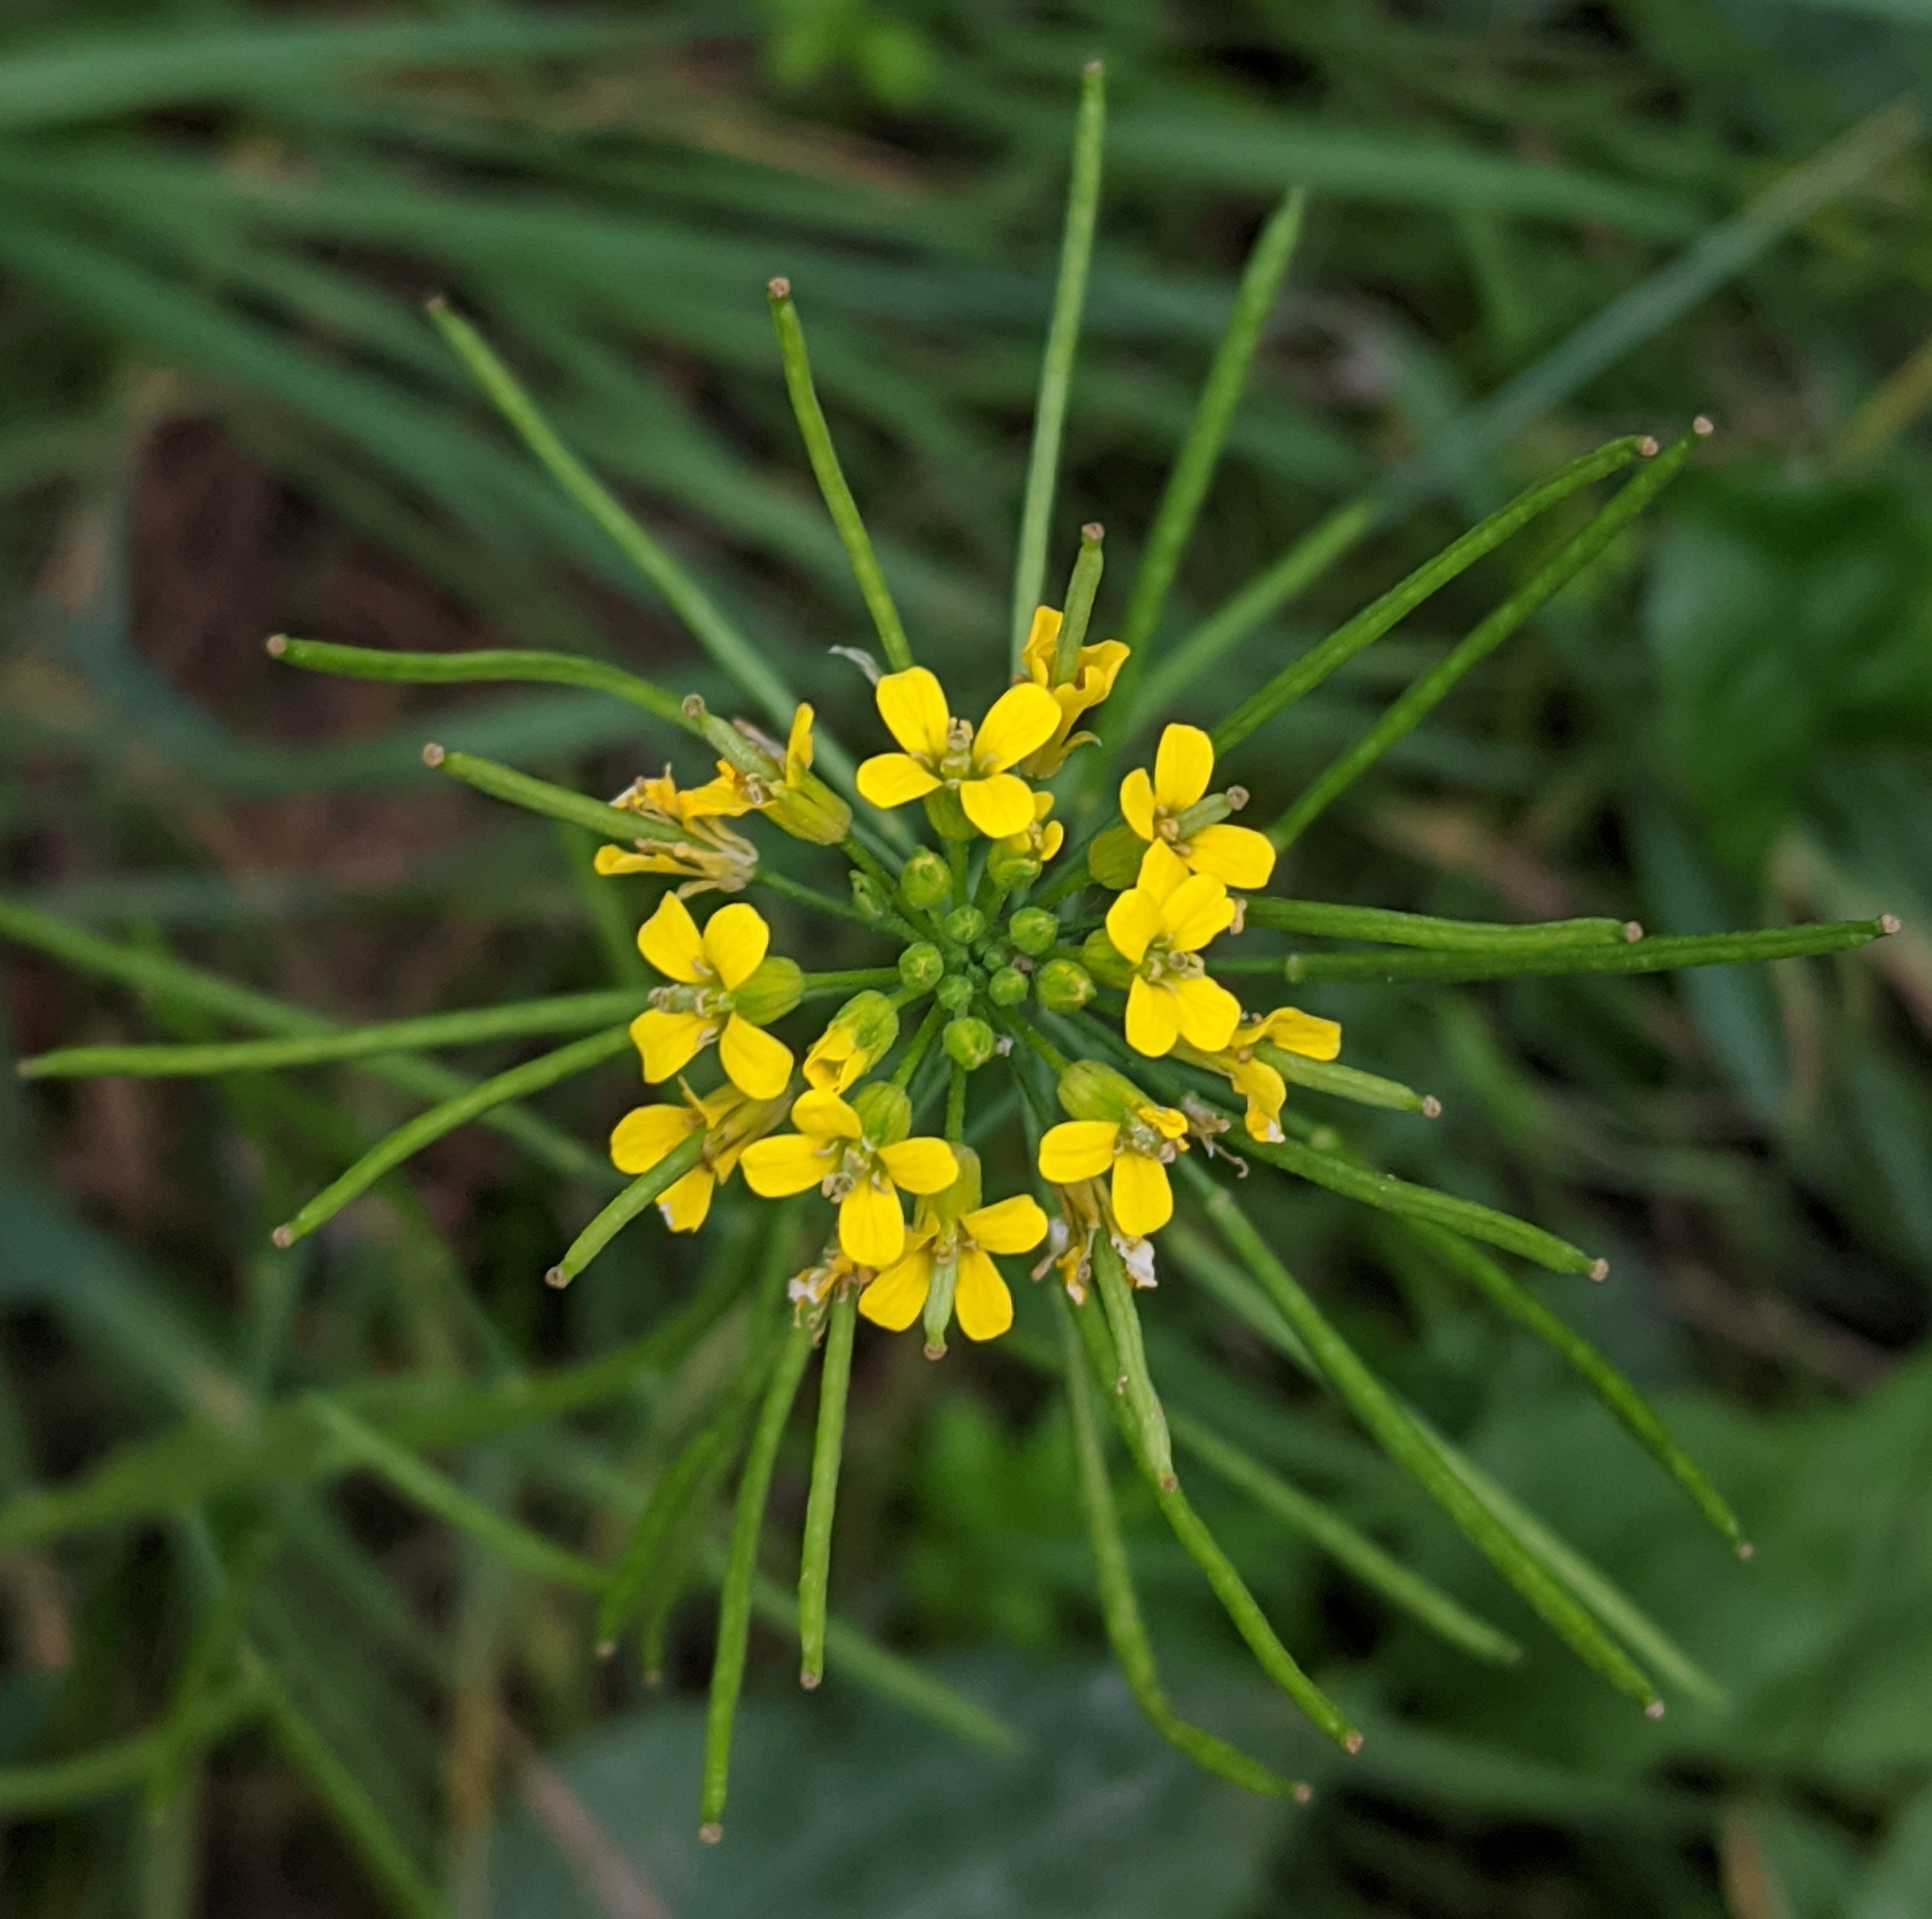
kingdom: Plantae
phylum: Tracheophyta
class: Magnoliopsida
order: Brassicales
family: Brassicaceae
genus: Erysimum
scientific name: Erysimum cheiranthoides
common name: Treacle mustard
